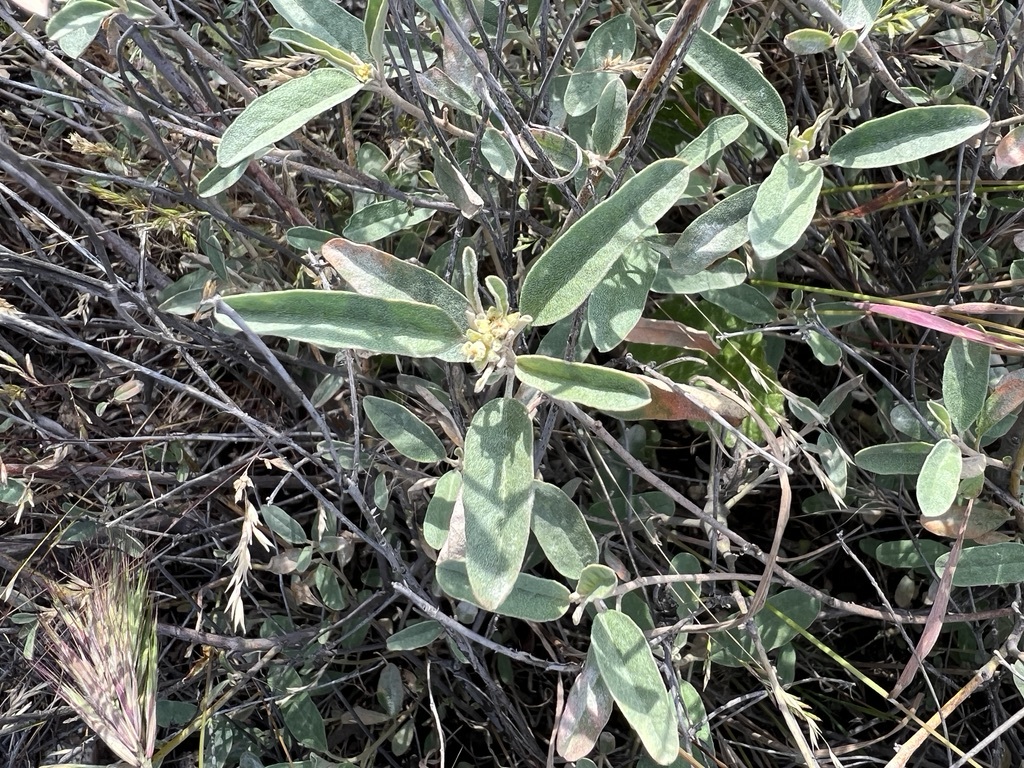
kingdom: Plantae
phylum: Tracheophyta
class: Magnoliopsida
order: Malpighiales
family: Euphorbiaceae
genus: Croton
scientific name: Croton californicus
